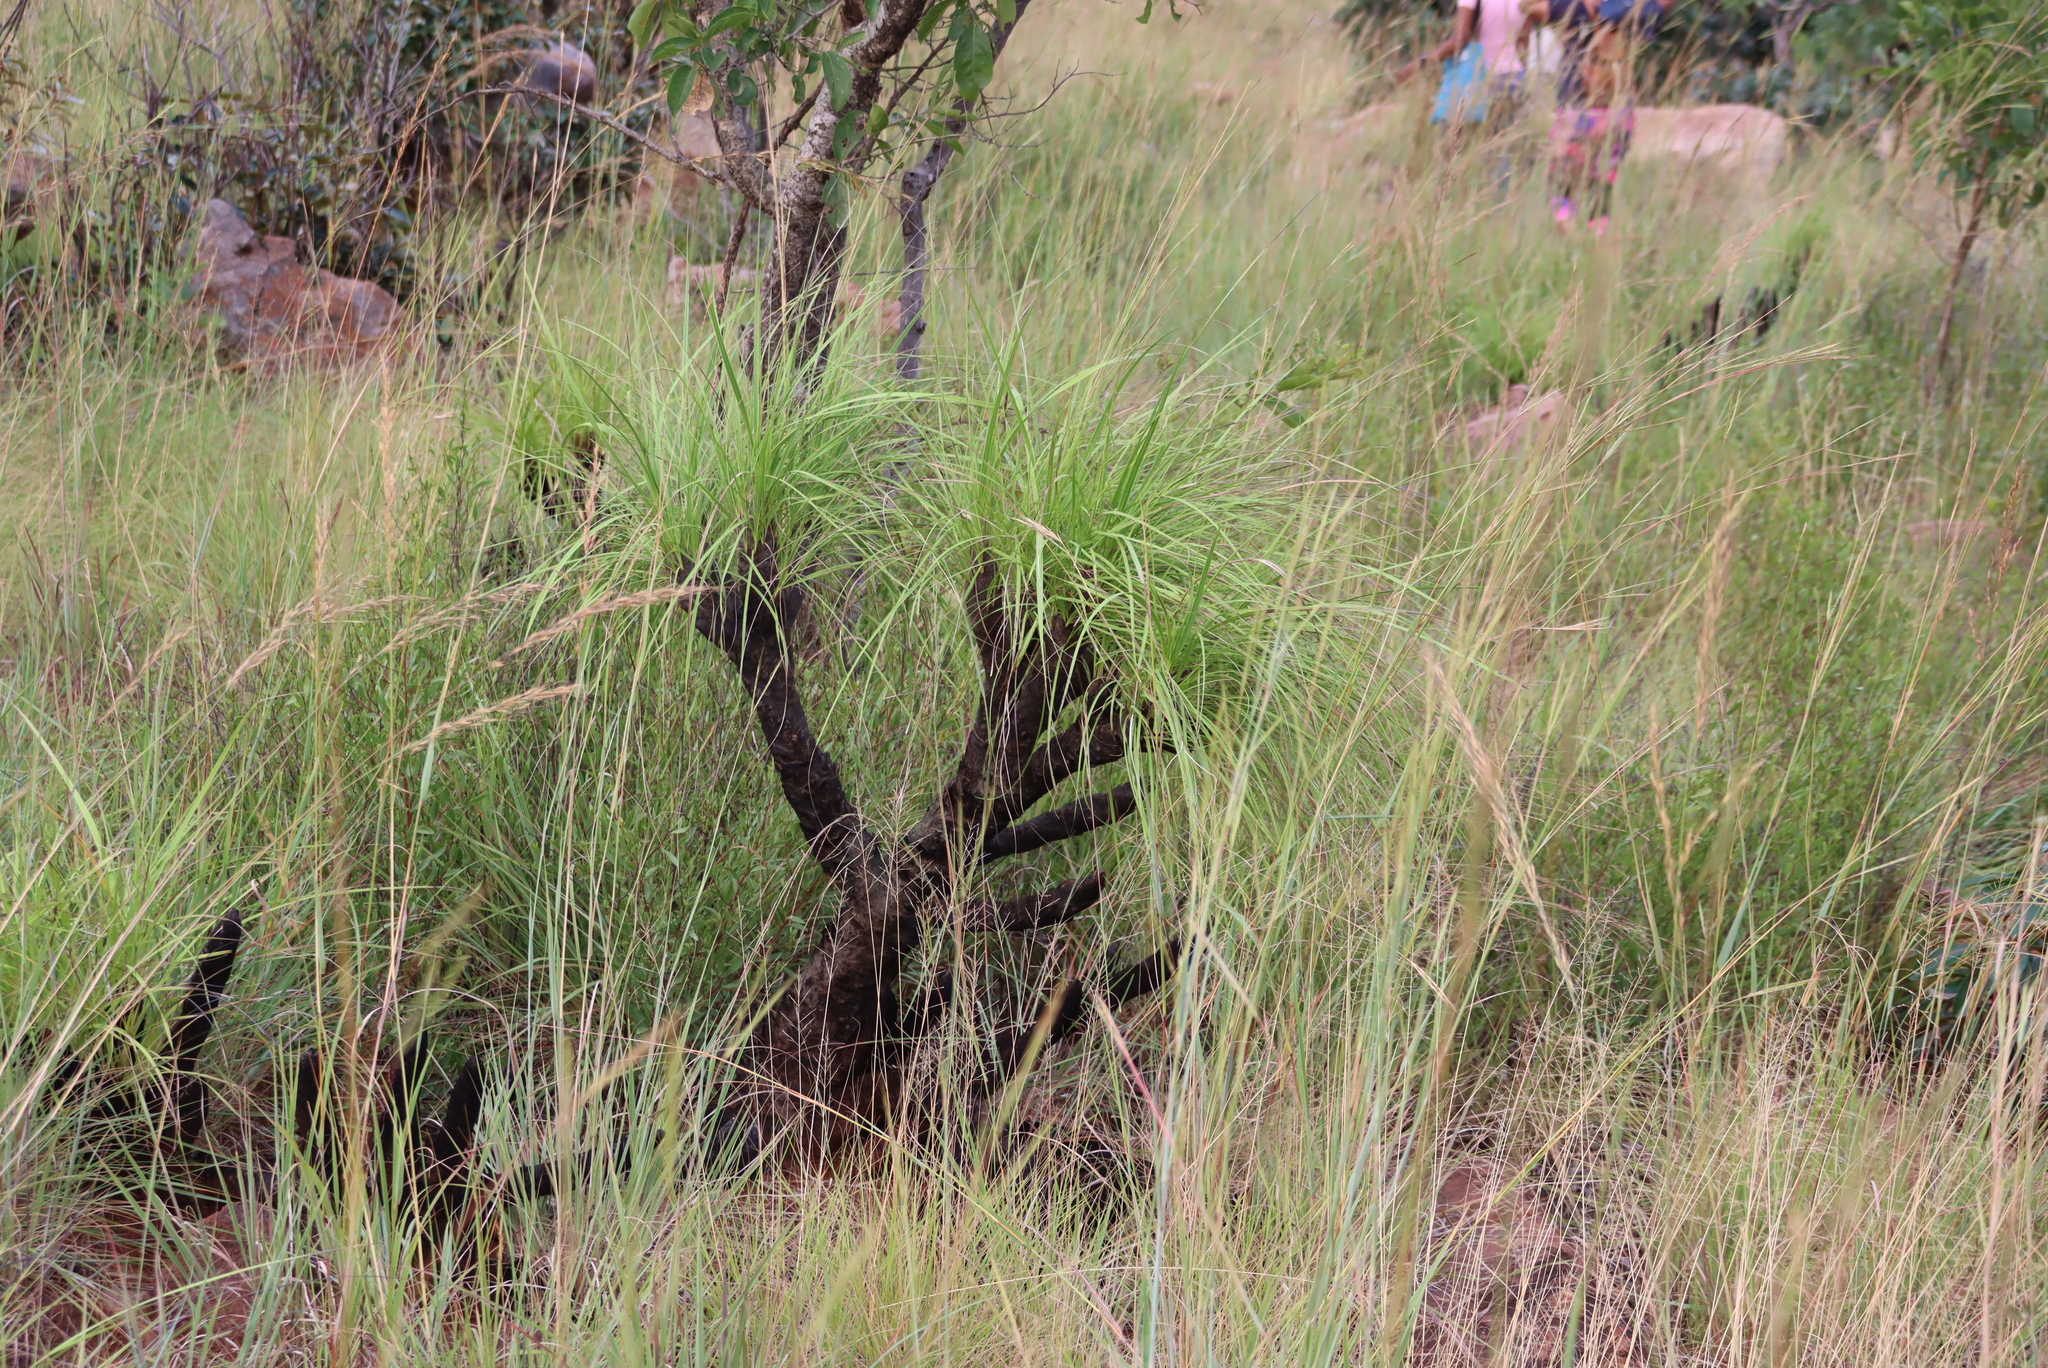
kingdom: Plantae
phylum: Tracheophyta
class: Liliopsida
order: Pandanales
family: Velloziaceae
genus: Xerophyta
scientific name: Xerophyta retinervis
